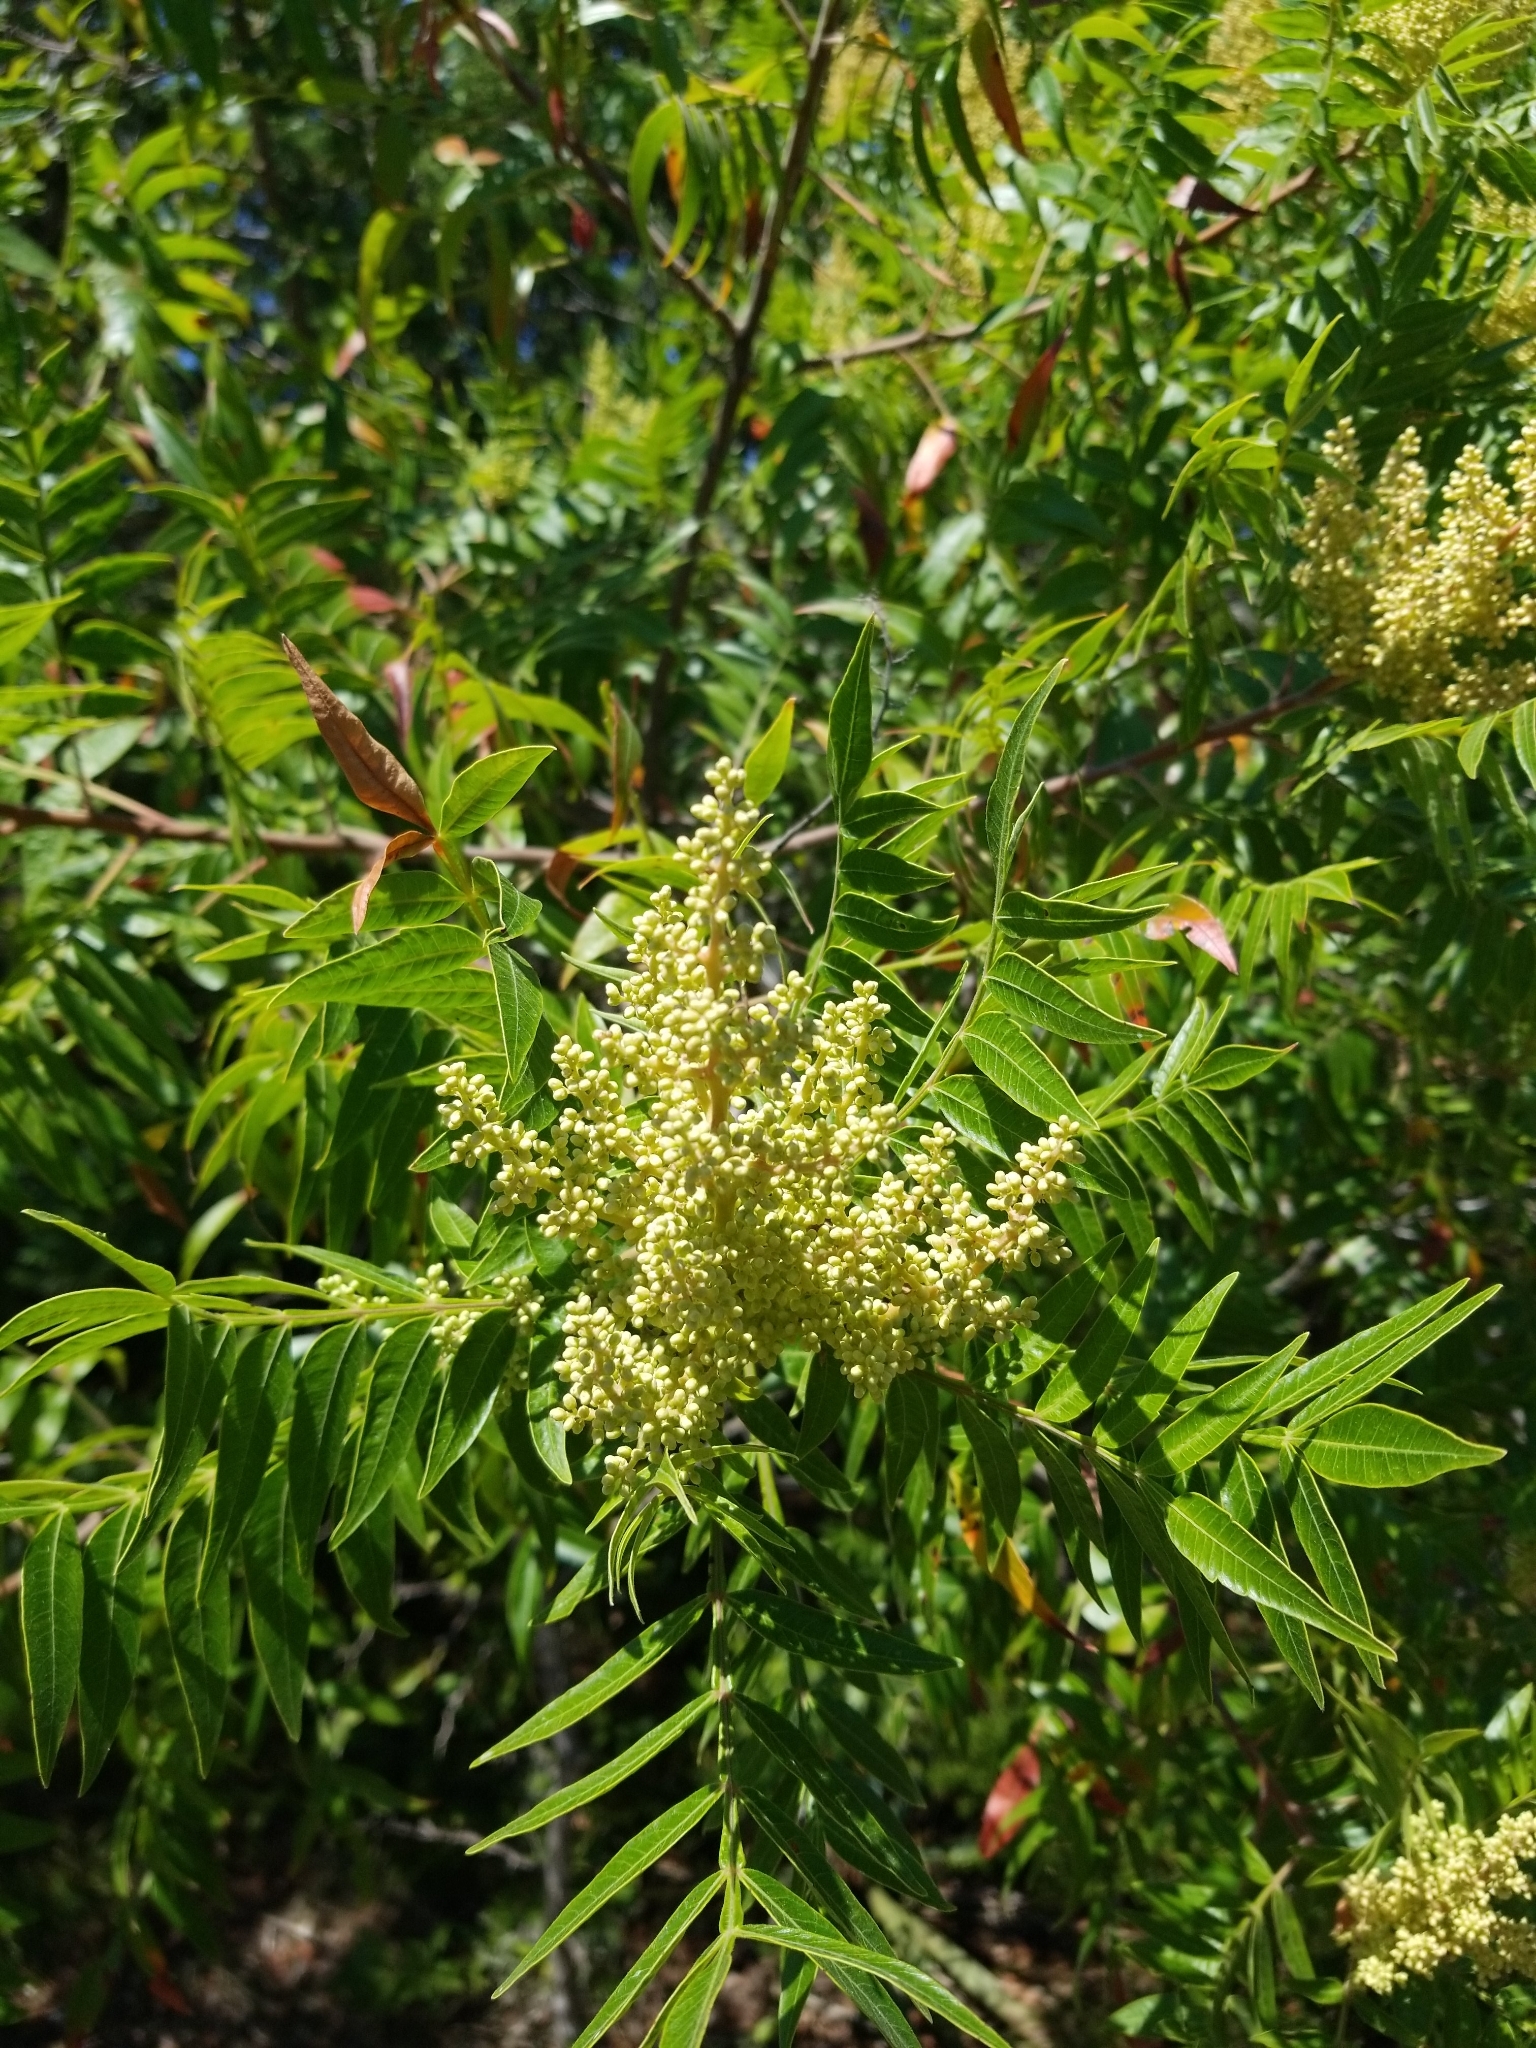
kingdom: Plantae
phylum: Tracheophyta
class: Magnoliopsida
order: Sapindales
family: Anacardiaceae
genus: Rhus
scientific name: Rhus lanceolata
